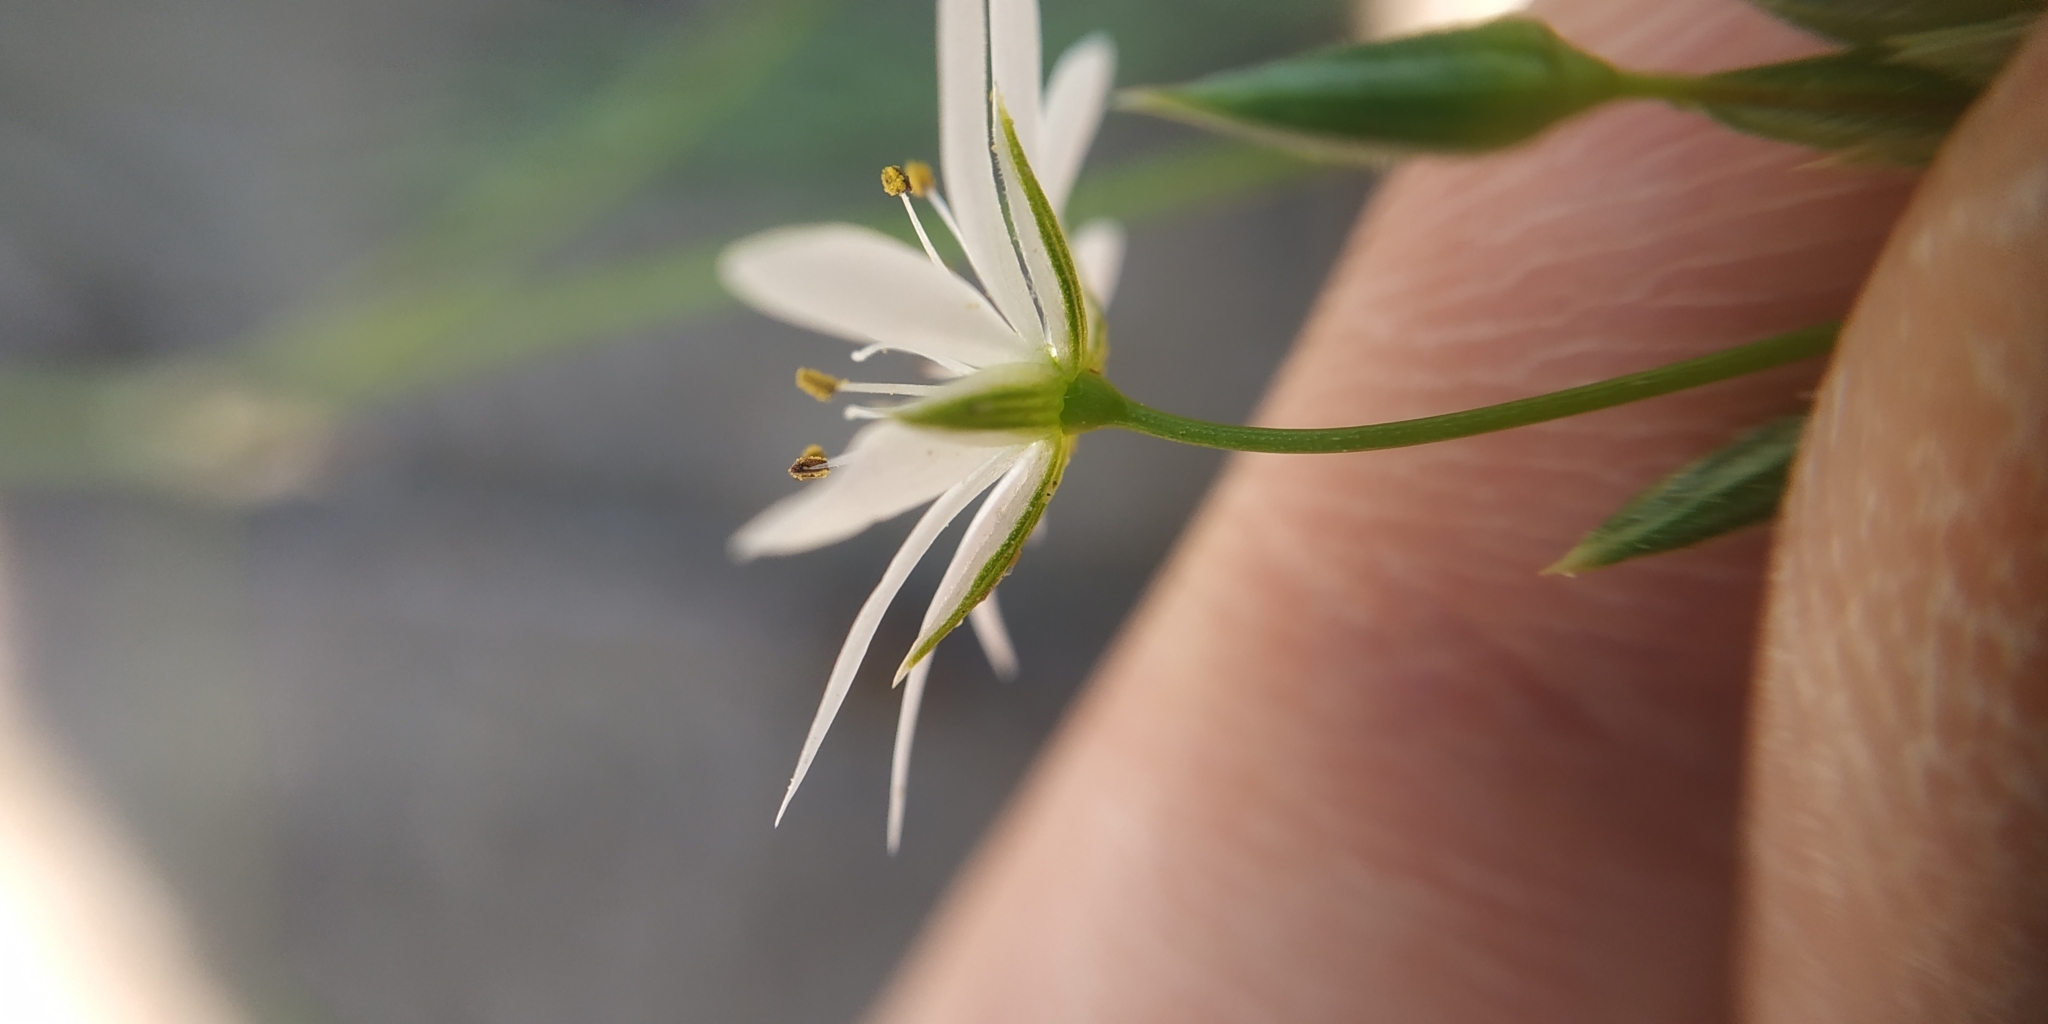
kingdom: Plantae
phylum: Tracheophyta
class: Magnoliopsida
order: Caryophyllales
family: Caryophyllaceae
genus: Stellaria
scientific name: Stellaria graminea
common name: Grass-like starwort
